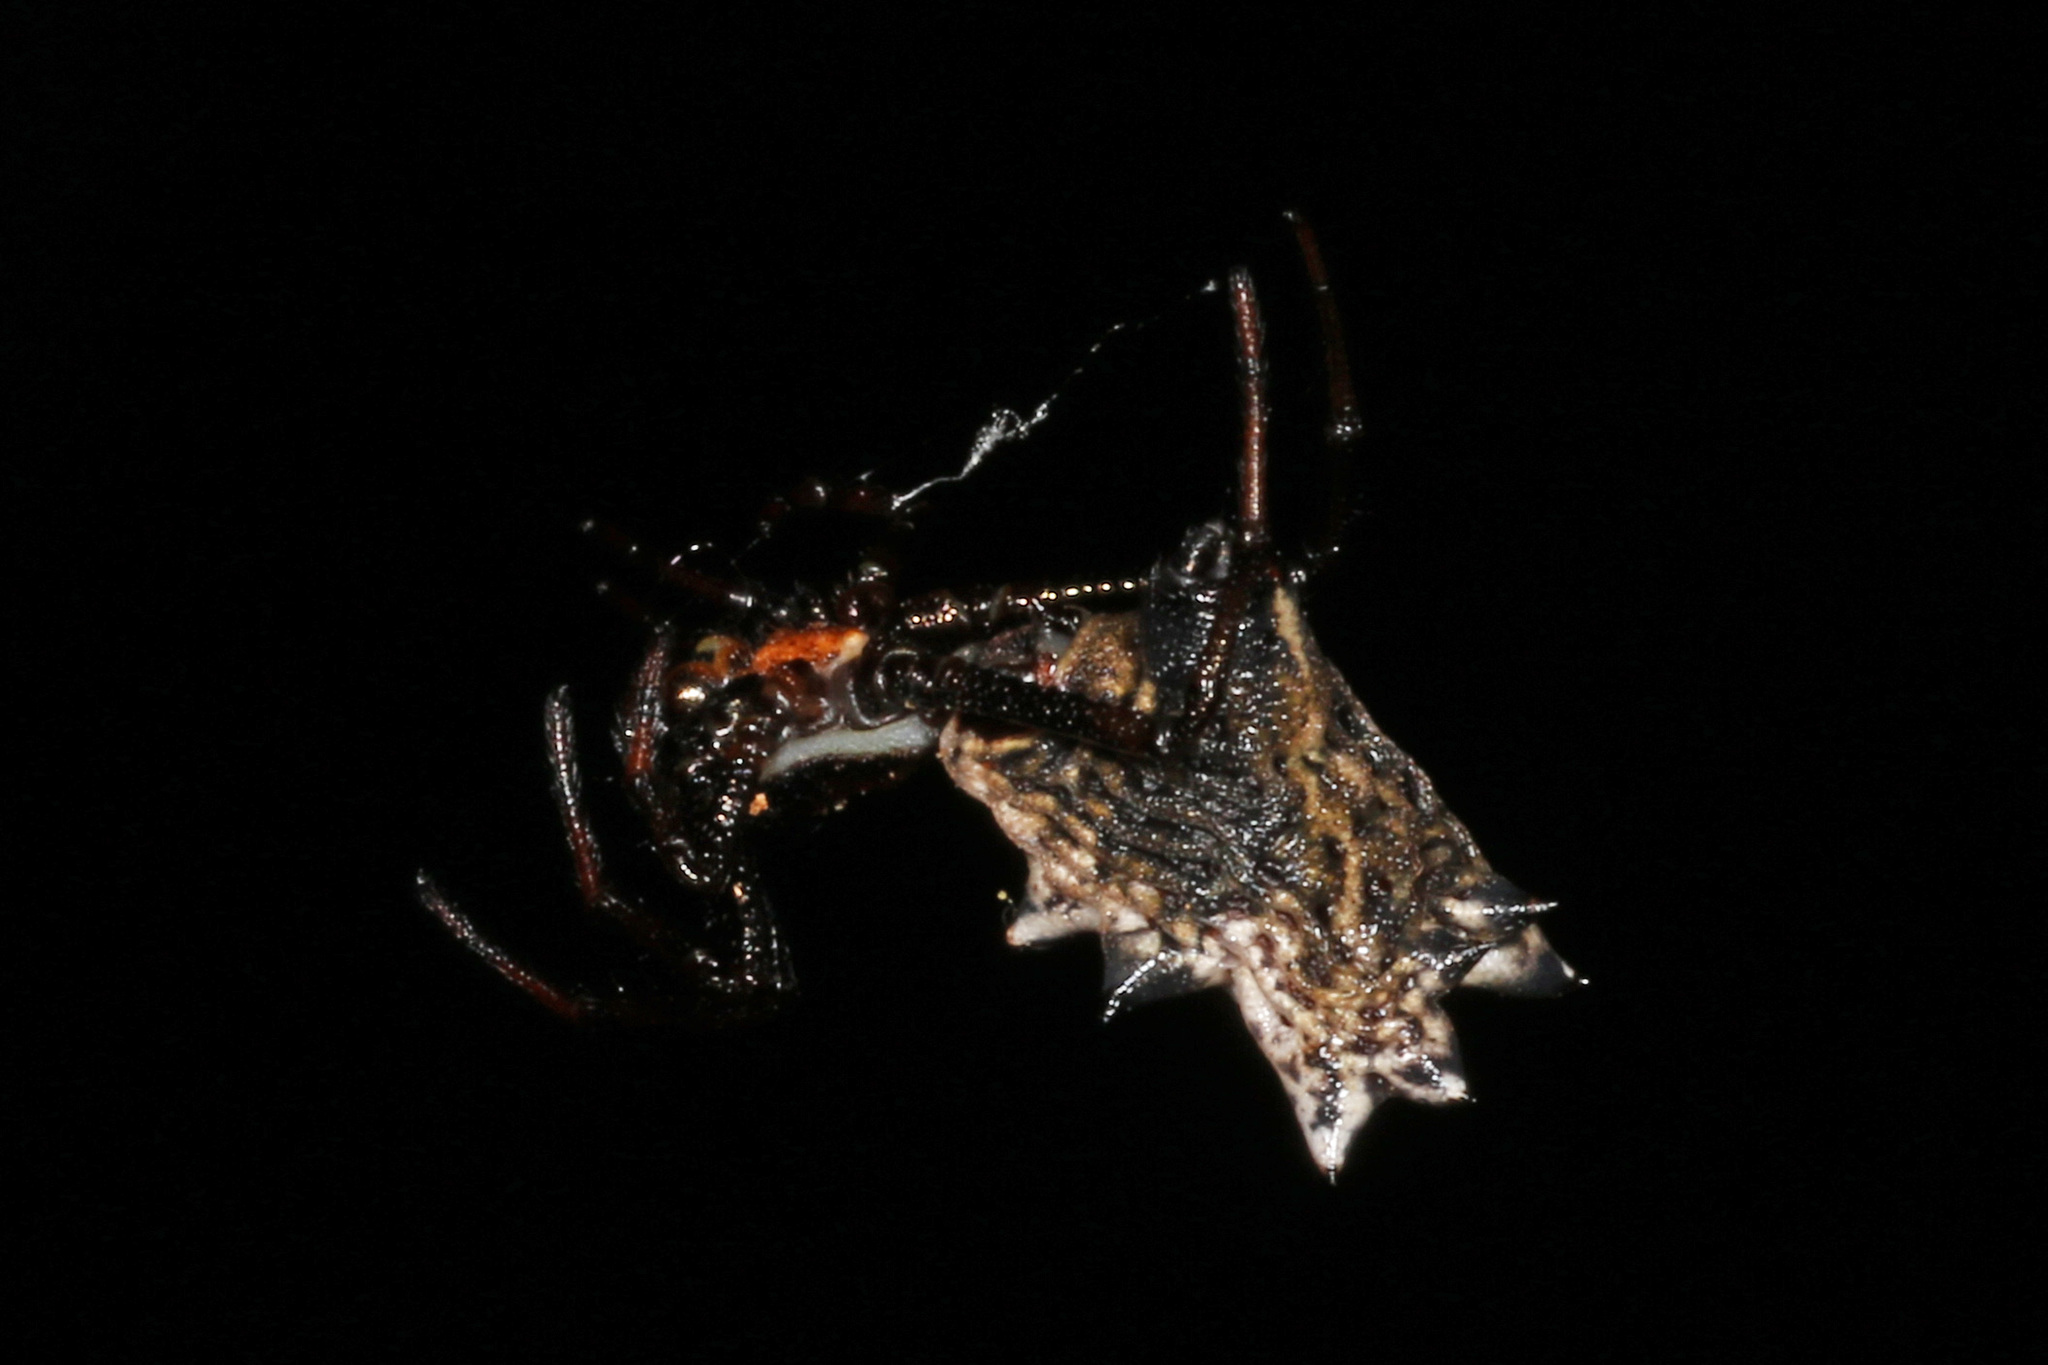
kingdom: Animalia
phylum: Arthropoda
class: Arachnida
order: Araneae
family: Araneidae
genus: Micrathena
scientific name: Micrathena gracilis
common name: Orb weavers
